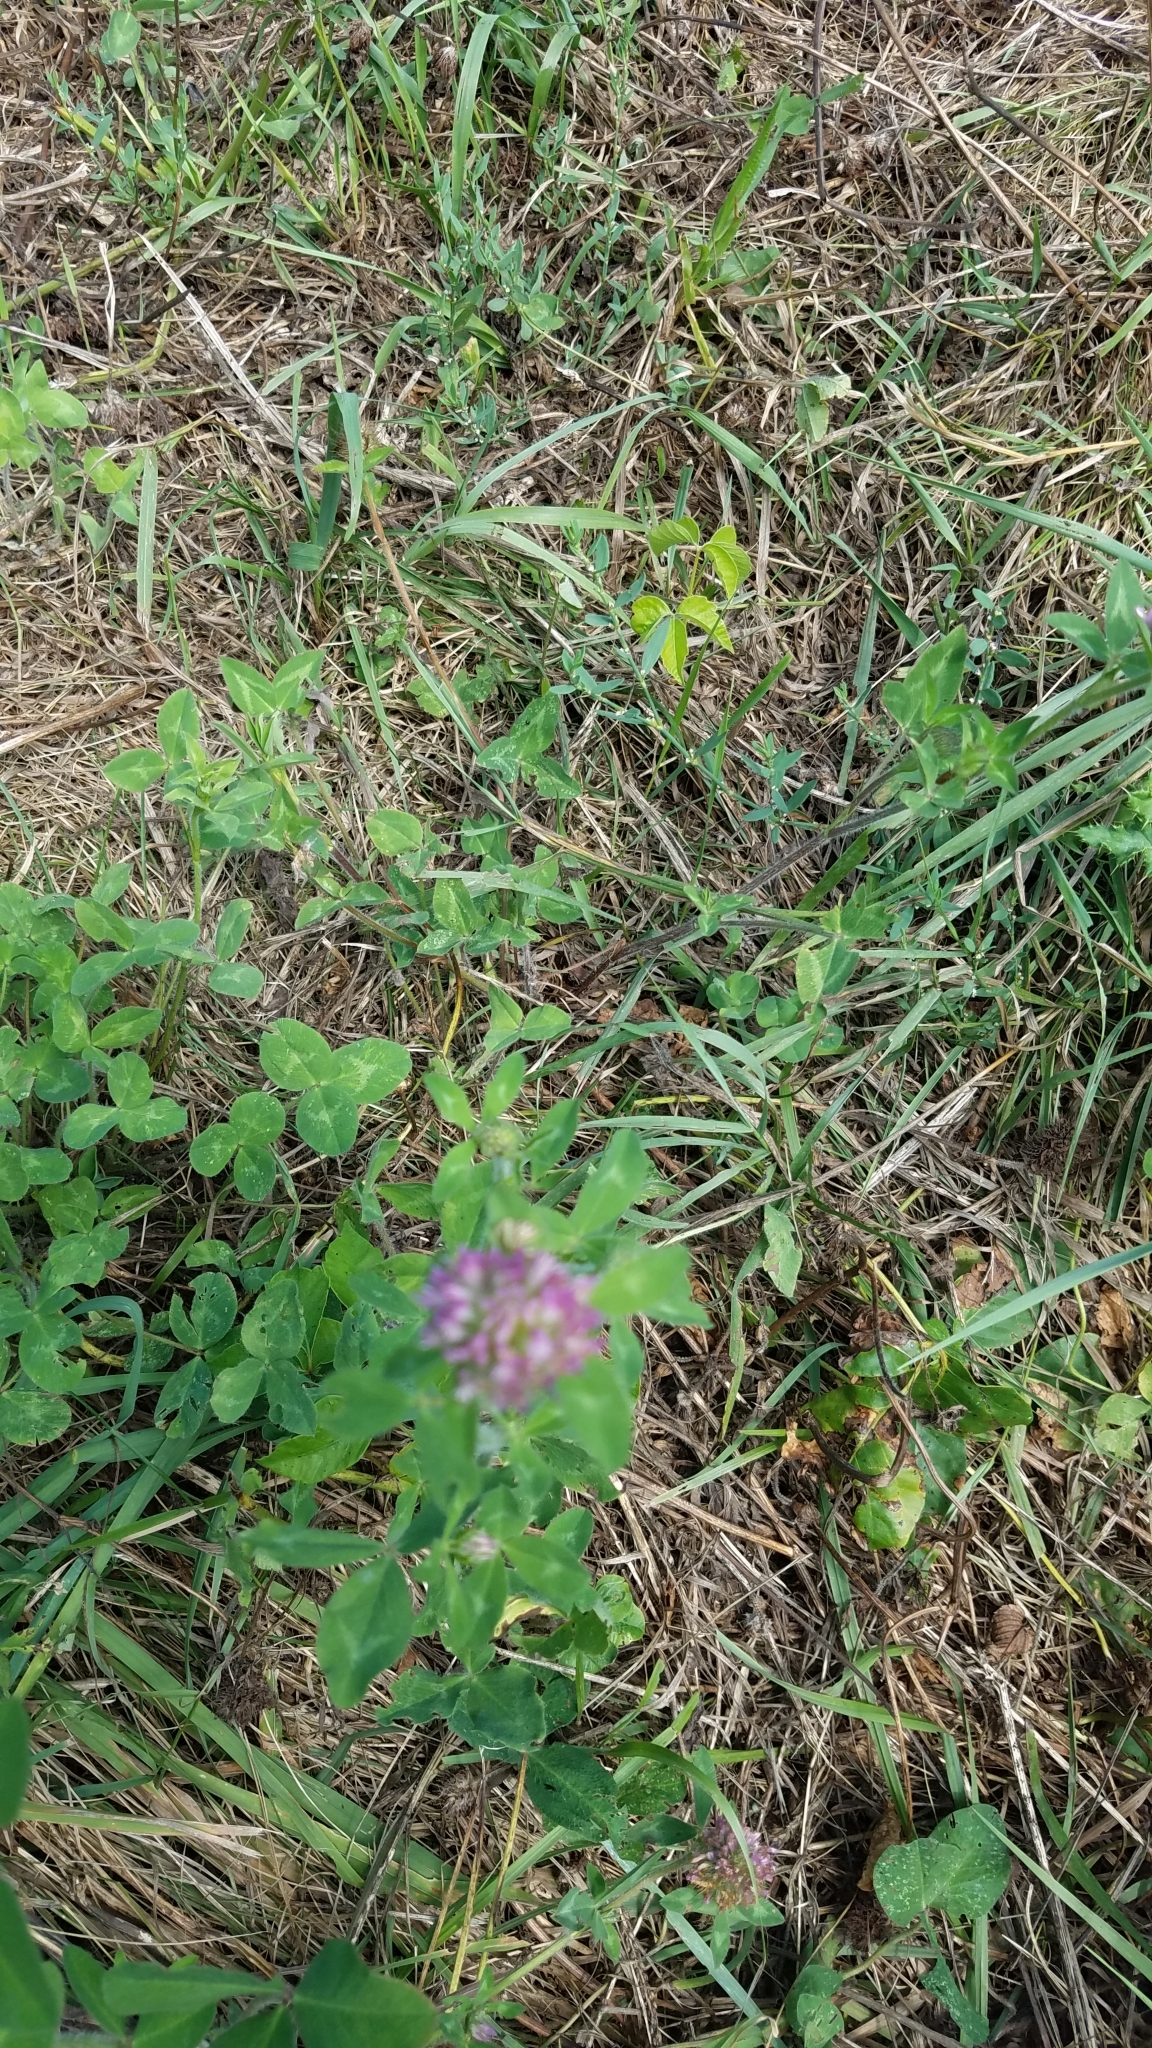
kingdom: Plantae
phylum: Tracheophyta
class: Magnoliopsida
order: Fabales
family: Fabaceae
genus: Trifolium
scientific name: Trifolium pratense
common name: Red clover
